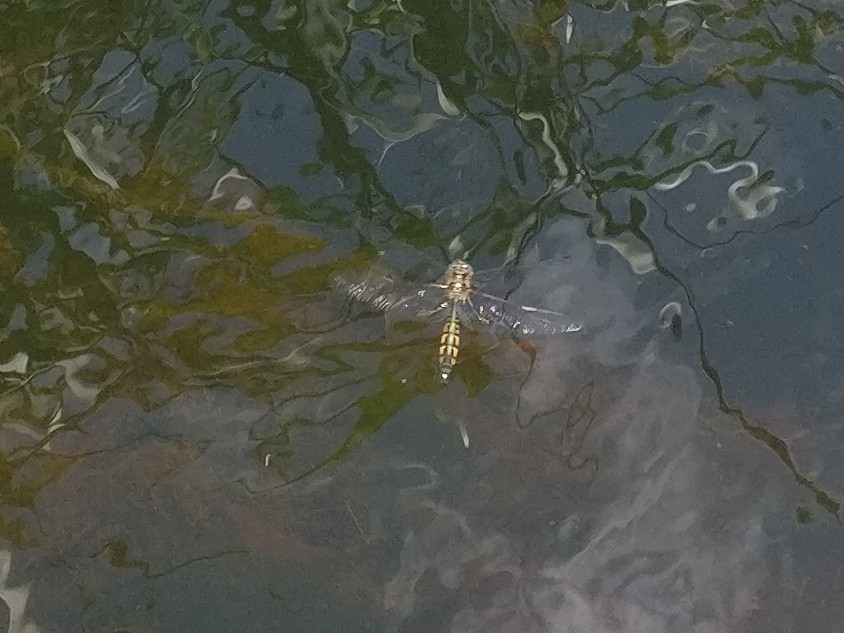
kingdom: Animalia
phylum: Arthropoda
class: Insecta
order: Odonata
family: Corduliidae
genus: Hemicordulia
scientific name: Hemicordulia armstrongi
